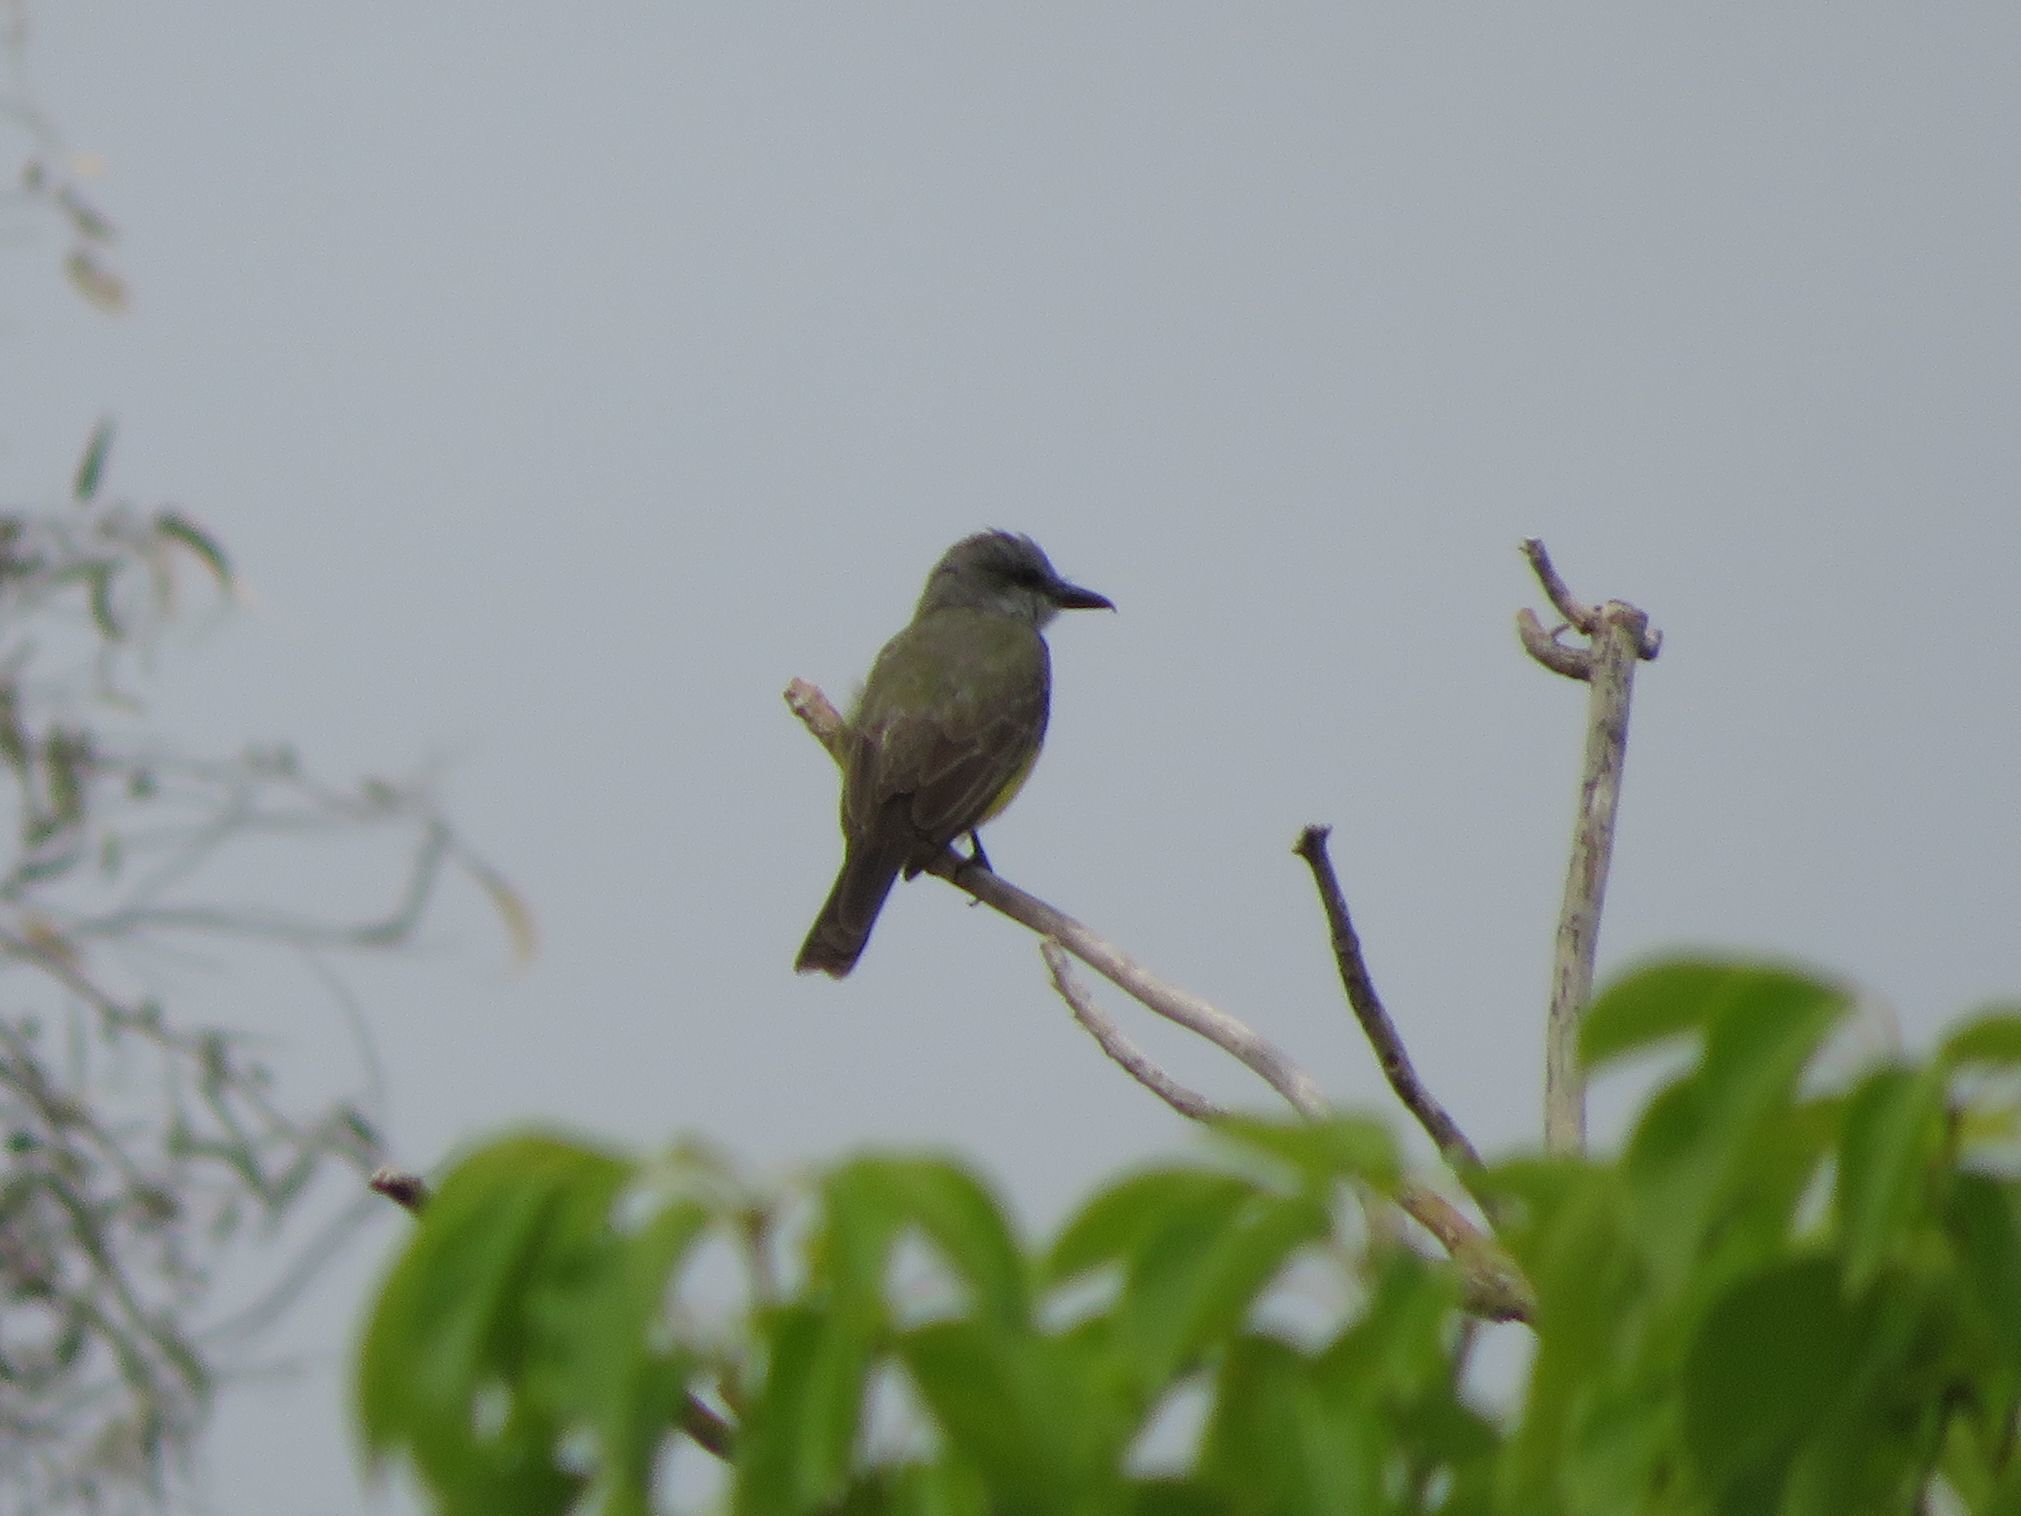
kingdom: Animalia
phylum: Chordata
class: Aves
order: Passeriformes
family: Tyrannidae
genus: Tyrannus
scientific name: Tyrannus melancholicus
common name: Tropical kingbird
